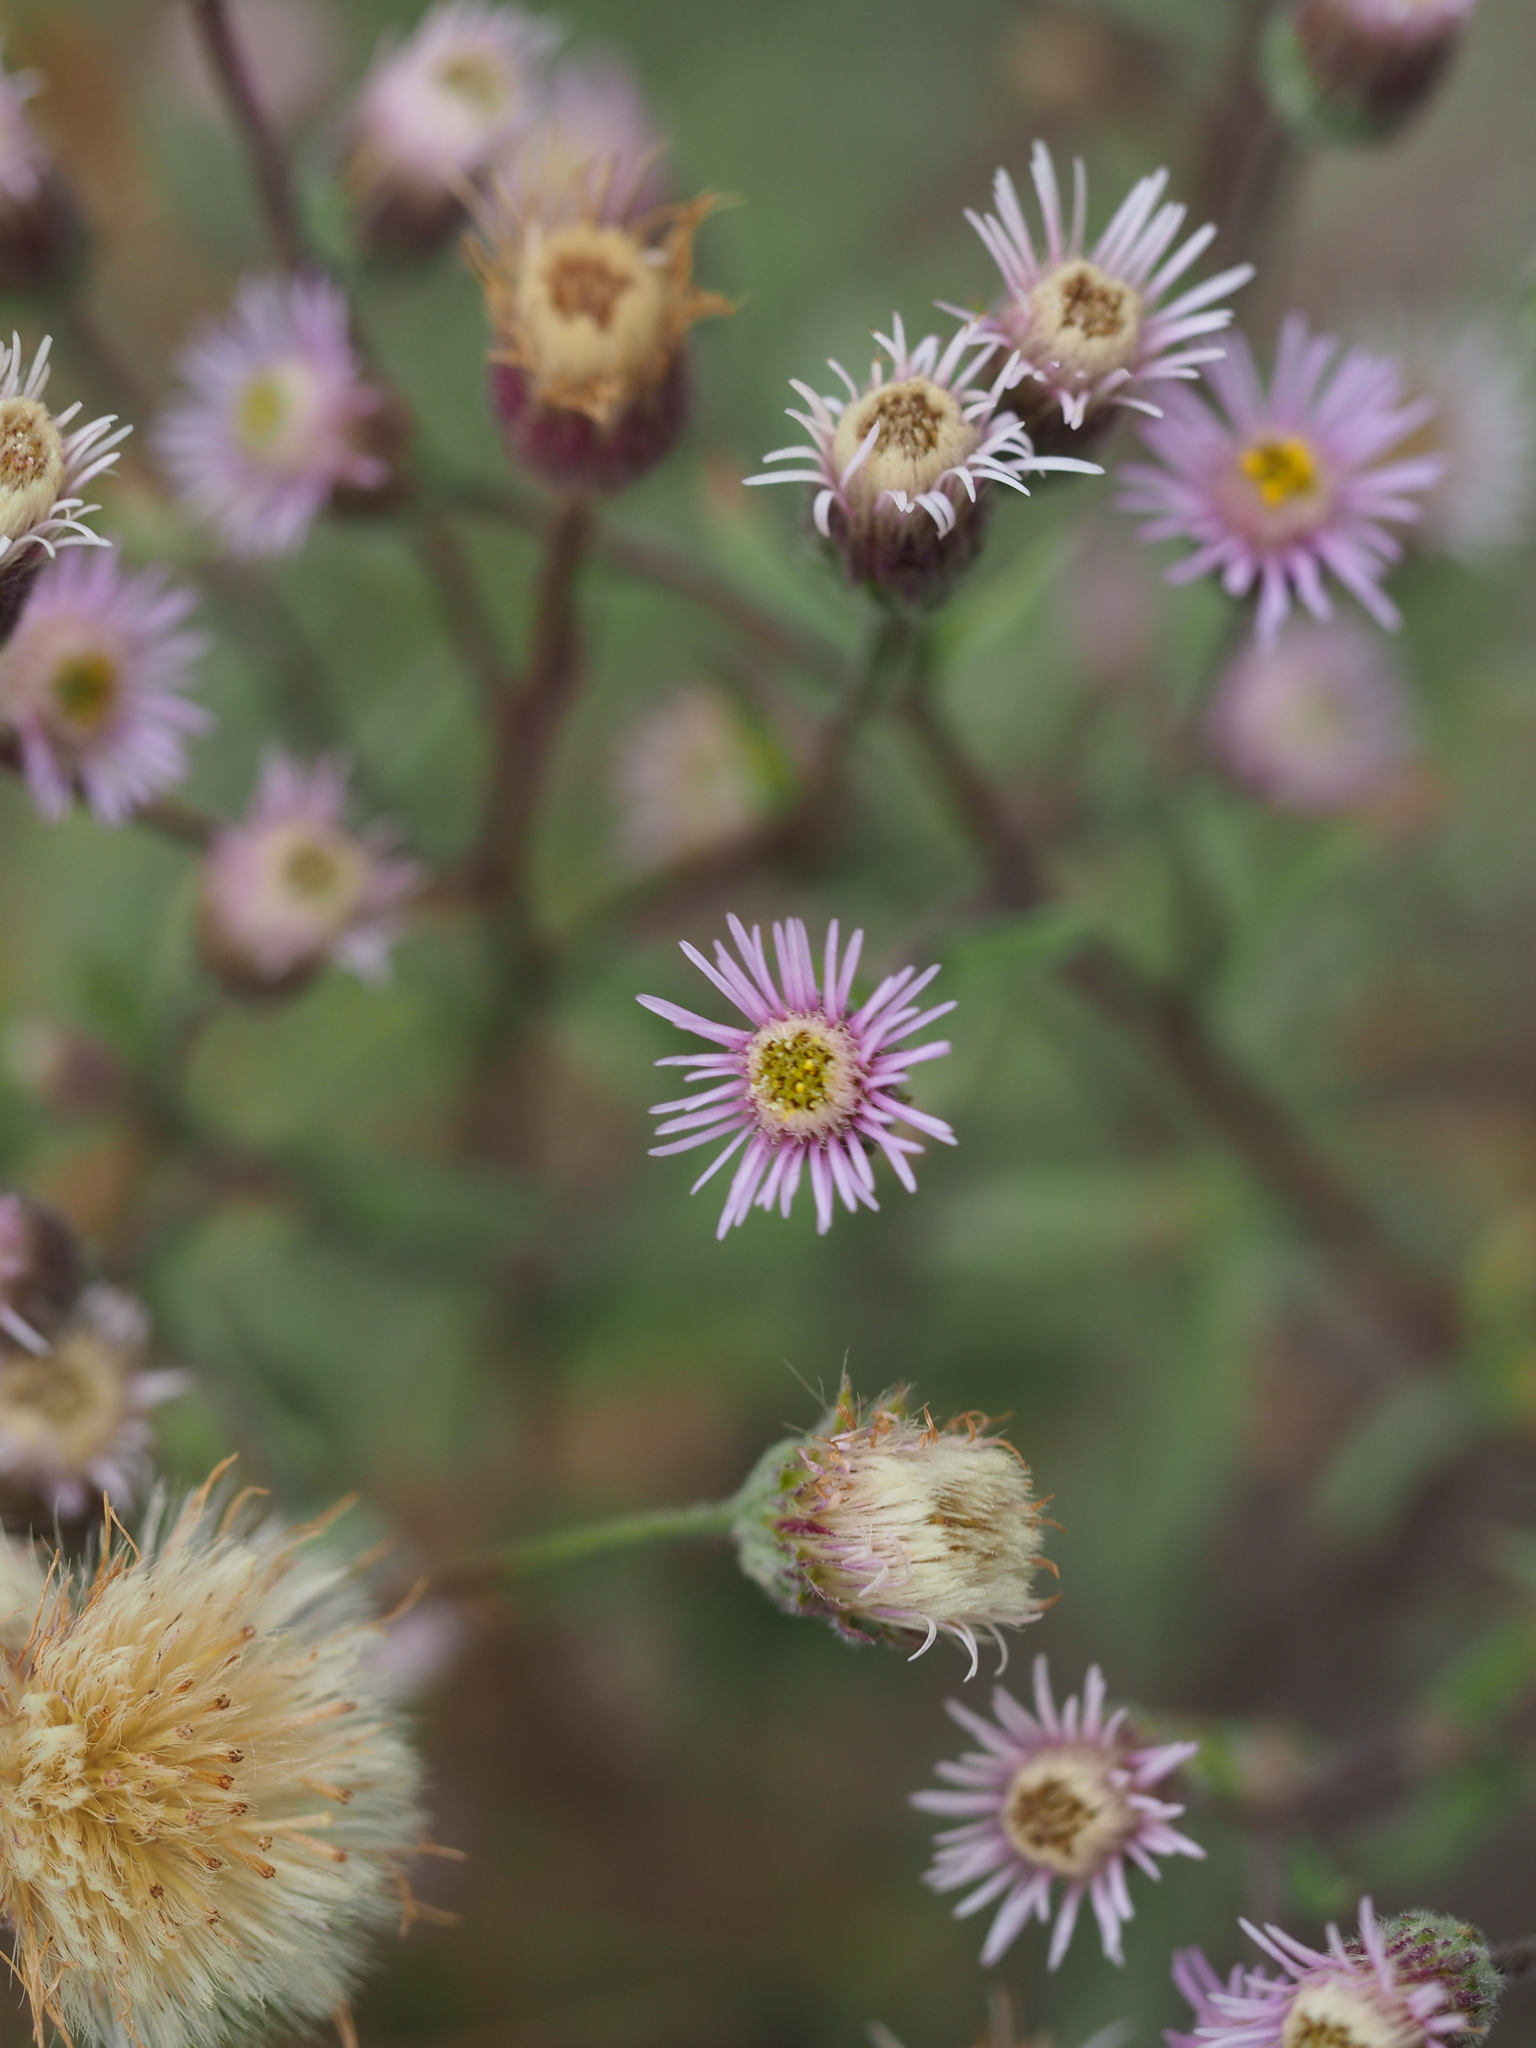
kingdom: Plantae
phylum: Tracheophyta
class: Magnoliopsida
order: Asterales
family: Asteraceae
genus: Erigeron
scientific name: Erigeron acris
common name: Blue fleabane
